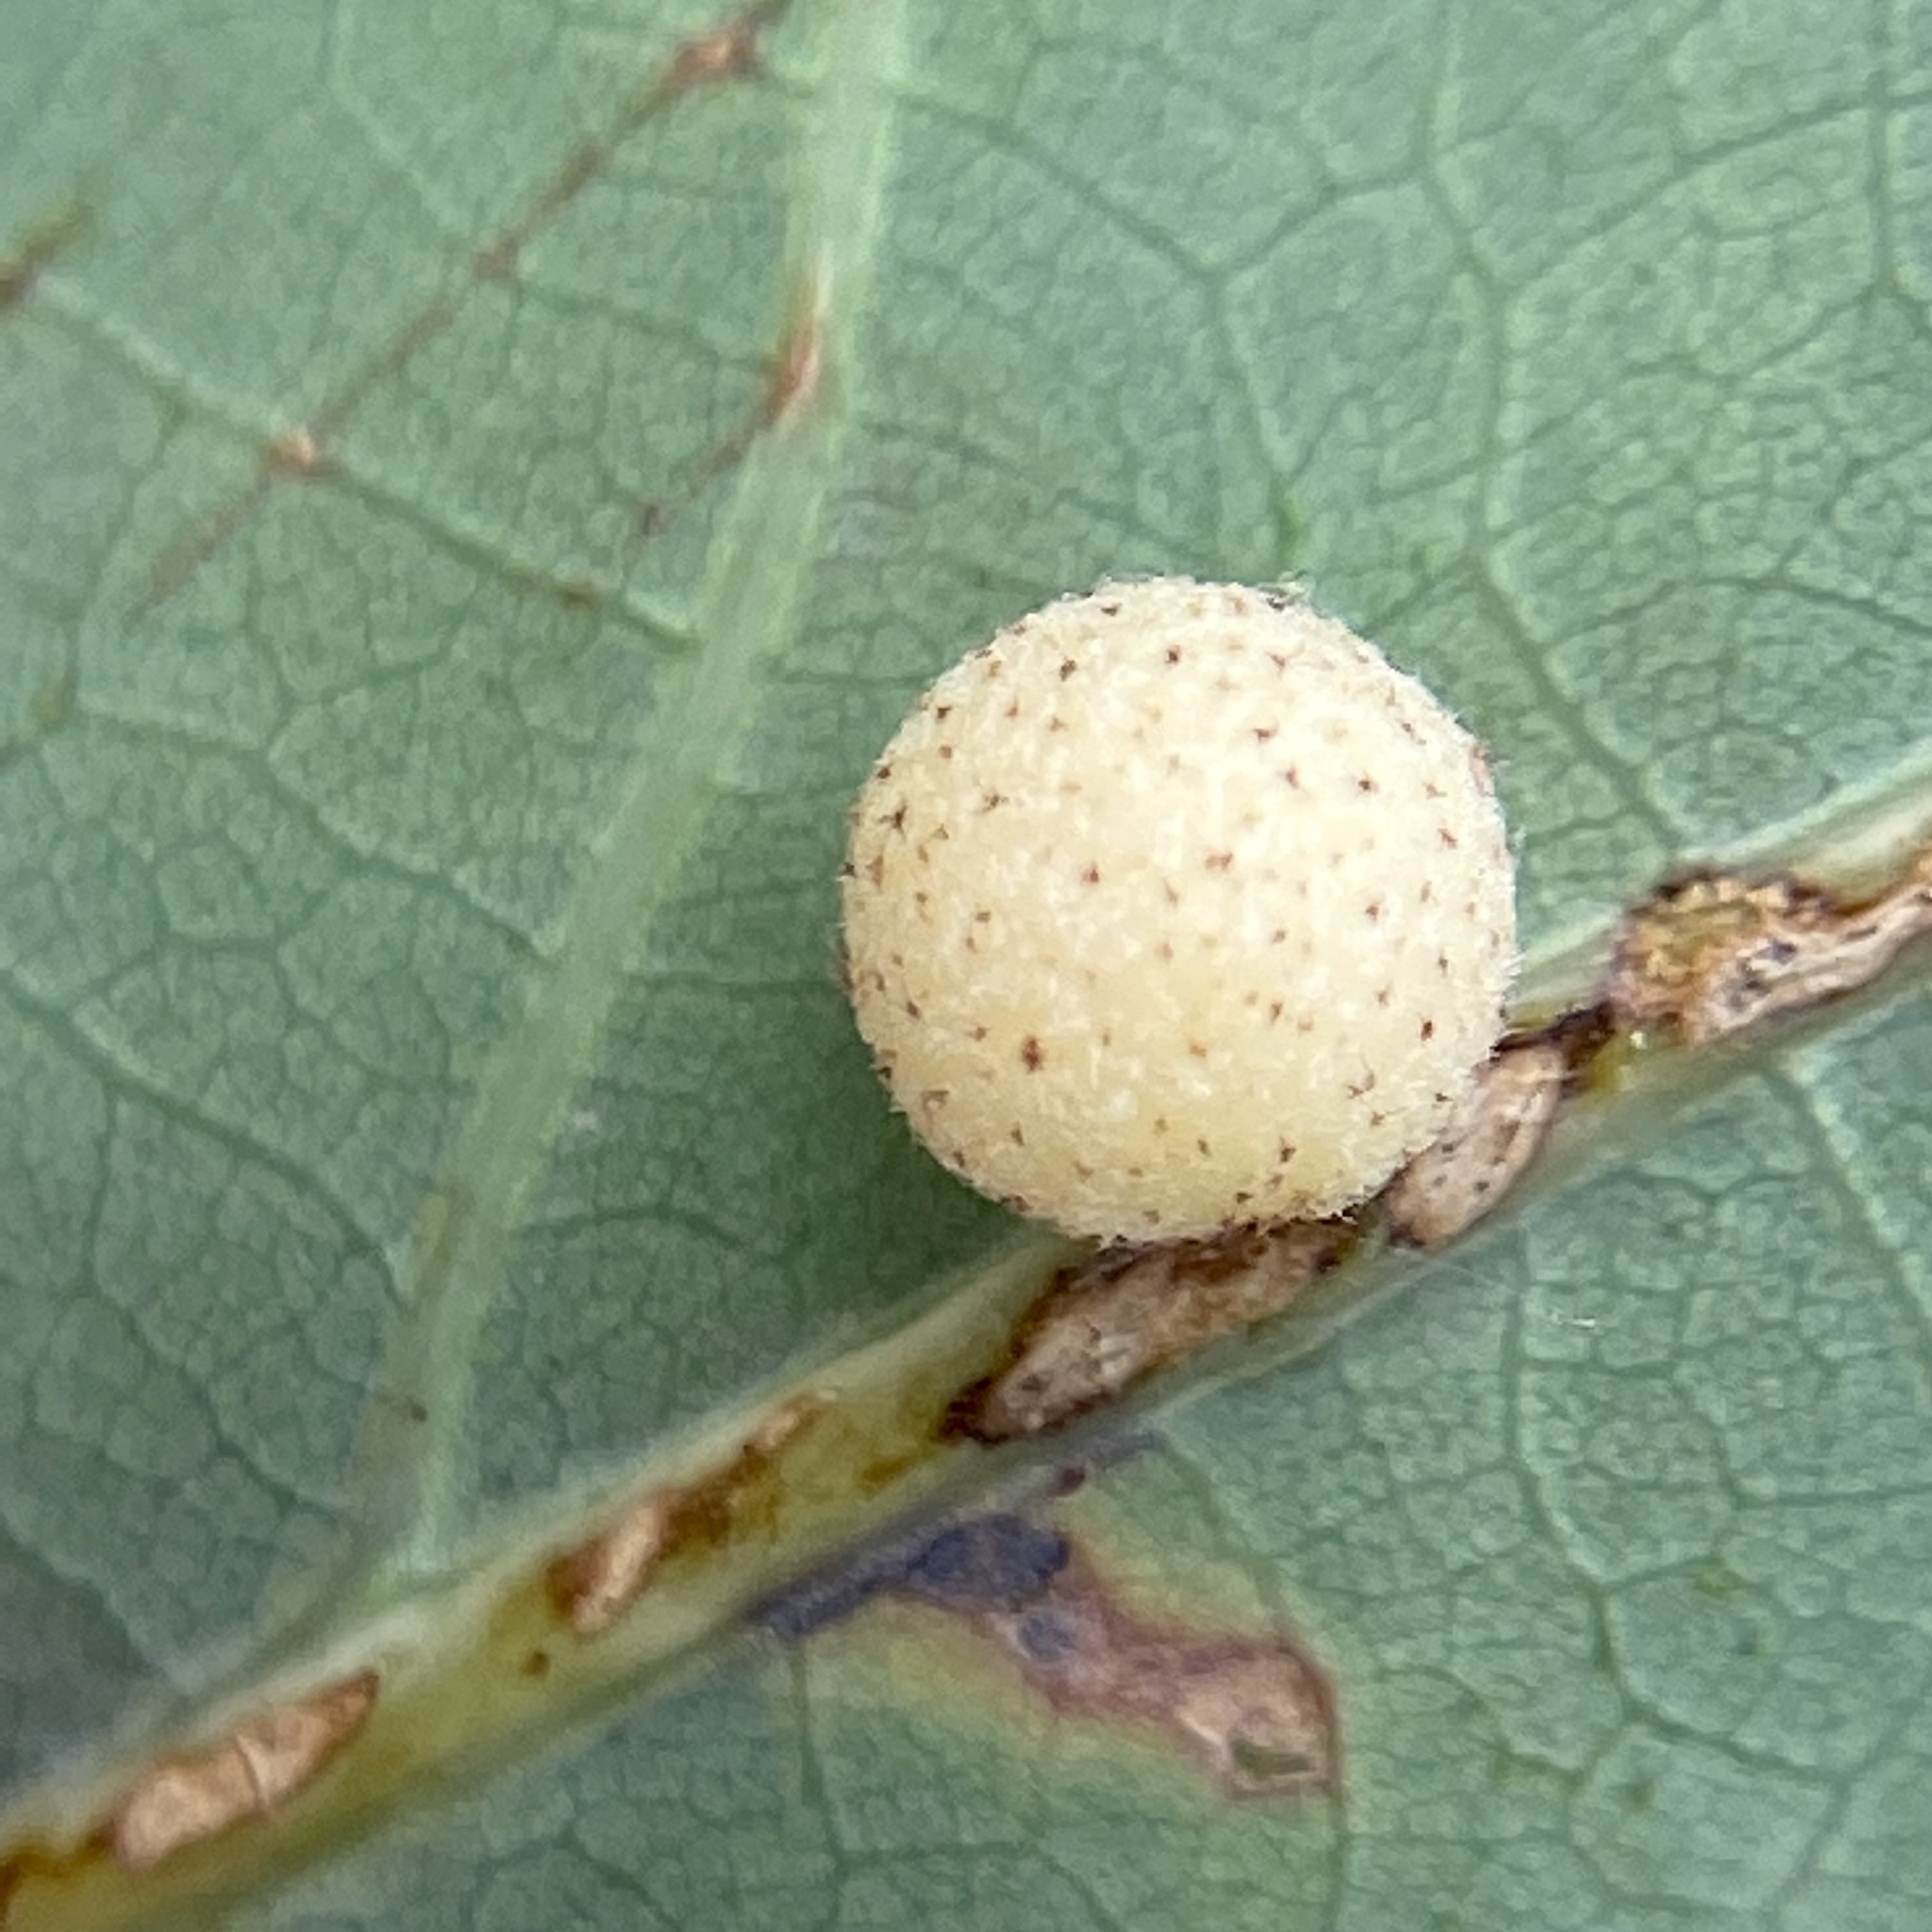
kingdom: Animalia
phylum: Arthropoda
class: Insecta
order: Hymenoptera
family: Cynipidae
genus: Philonix
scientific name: Philonix fulvicollis
